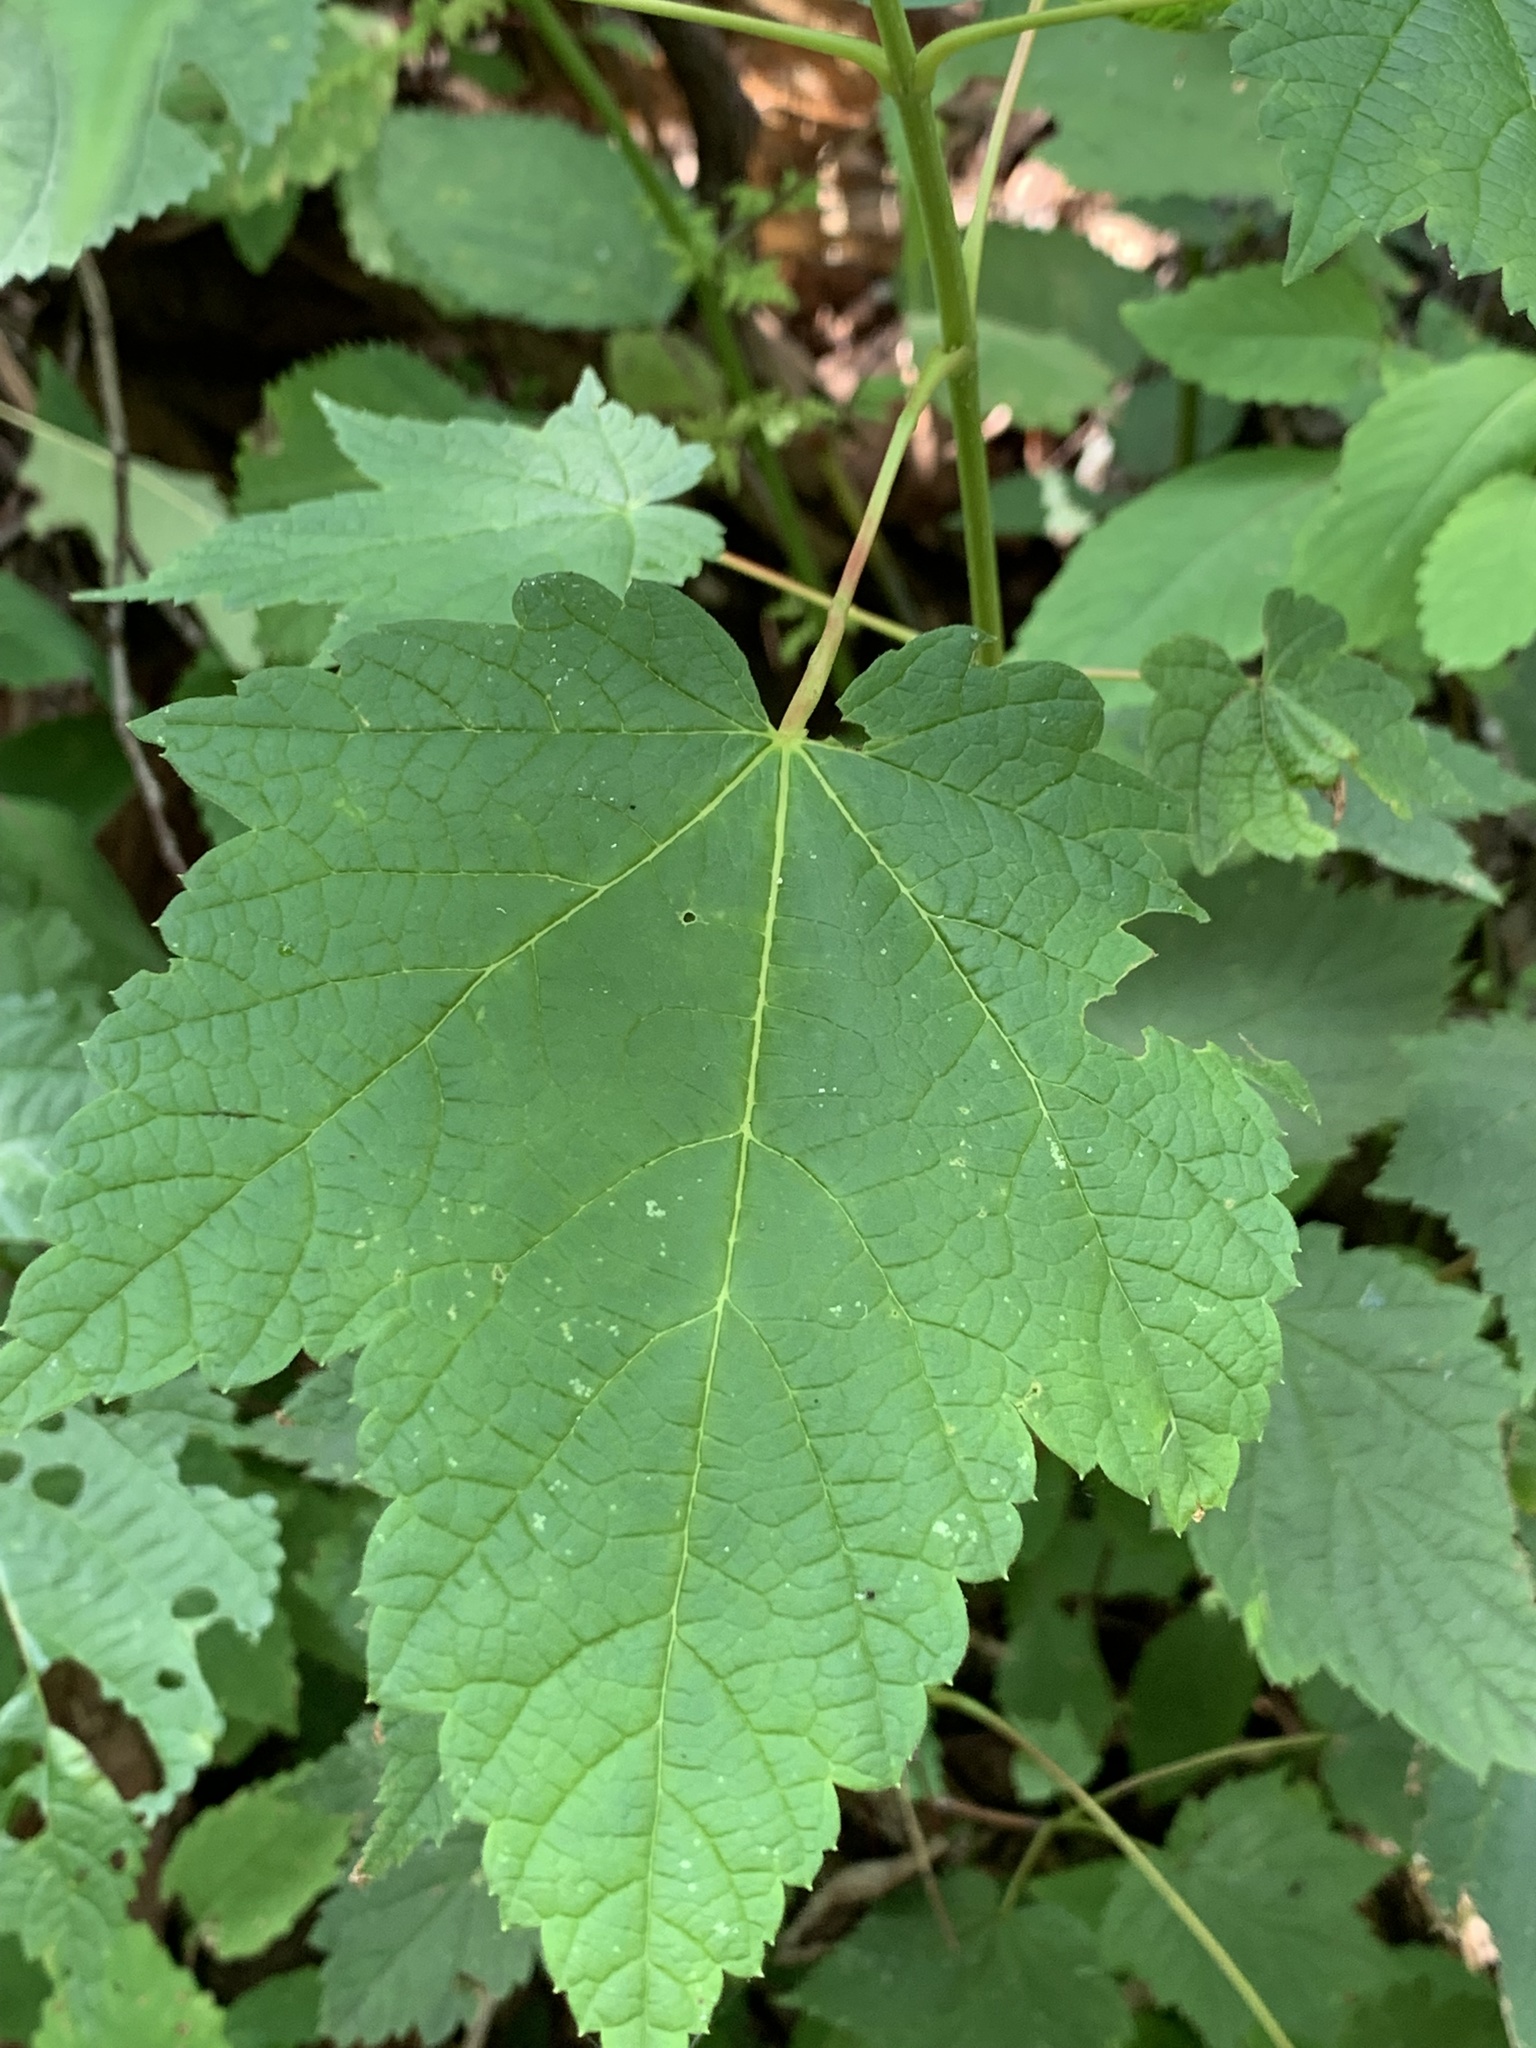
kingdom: Plantae
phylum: Tracheophyta
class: Magnoliopsida
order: Sapindales
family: Sapindaceae
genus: Acer
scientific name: Acer spicatum
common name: Mountain maple
